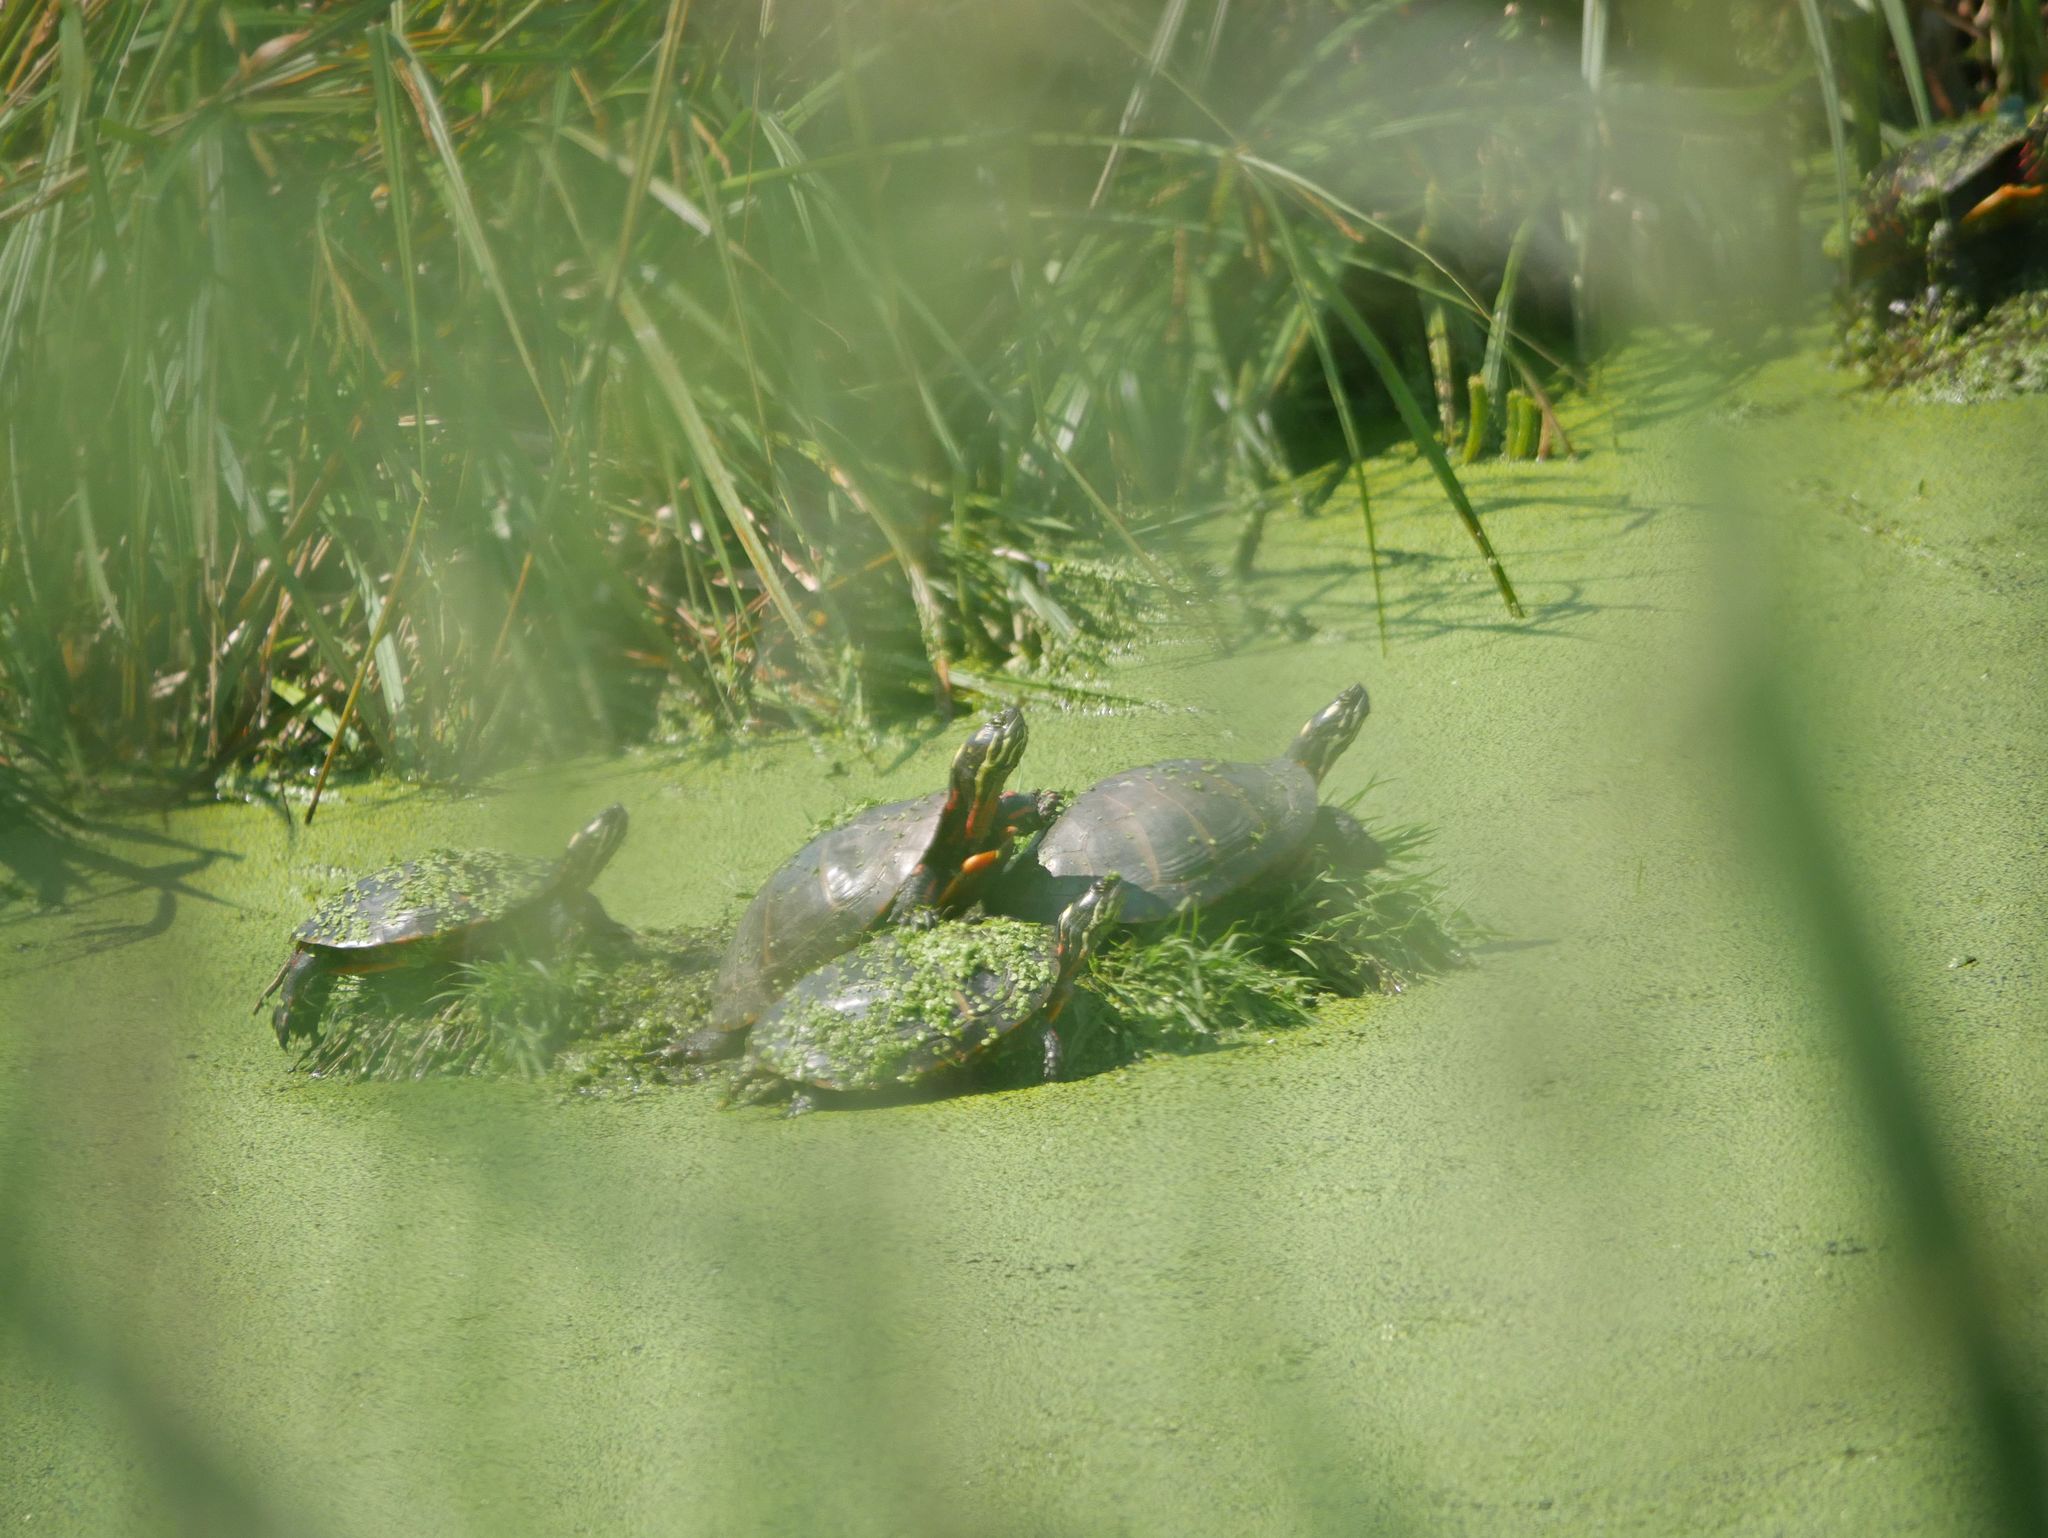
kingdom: Animalia
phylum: Chordata
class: Testudines
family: Emydidae
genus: Chrysemys
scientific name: Chrysemys picta
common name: Painted turtle
